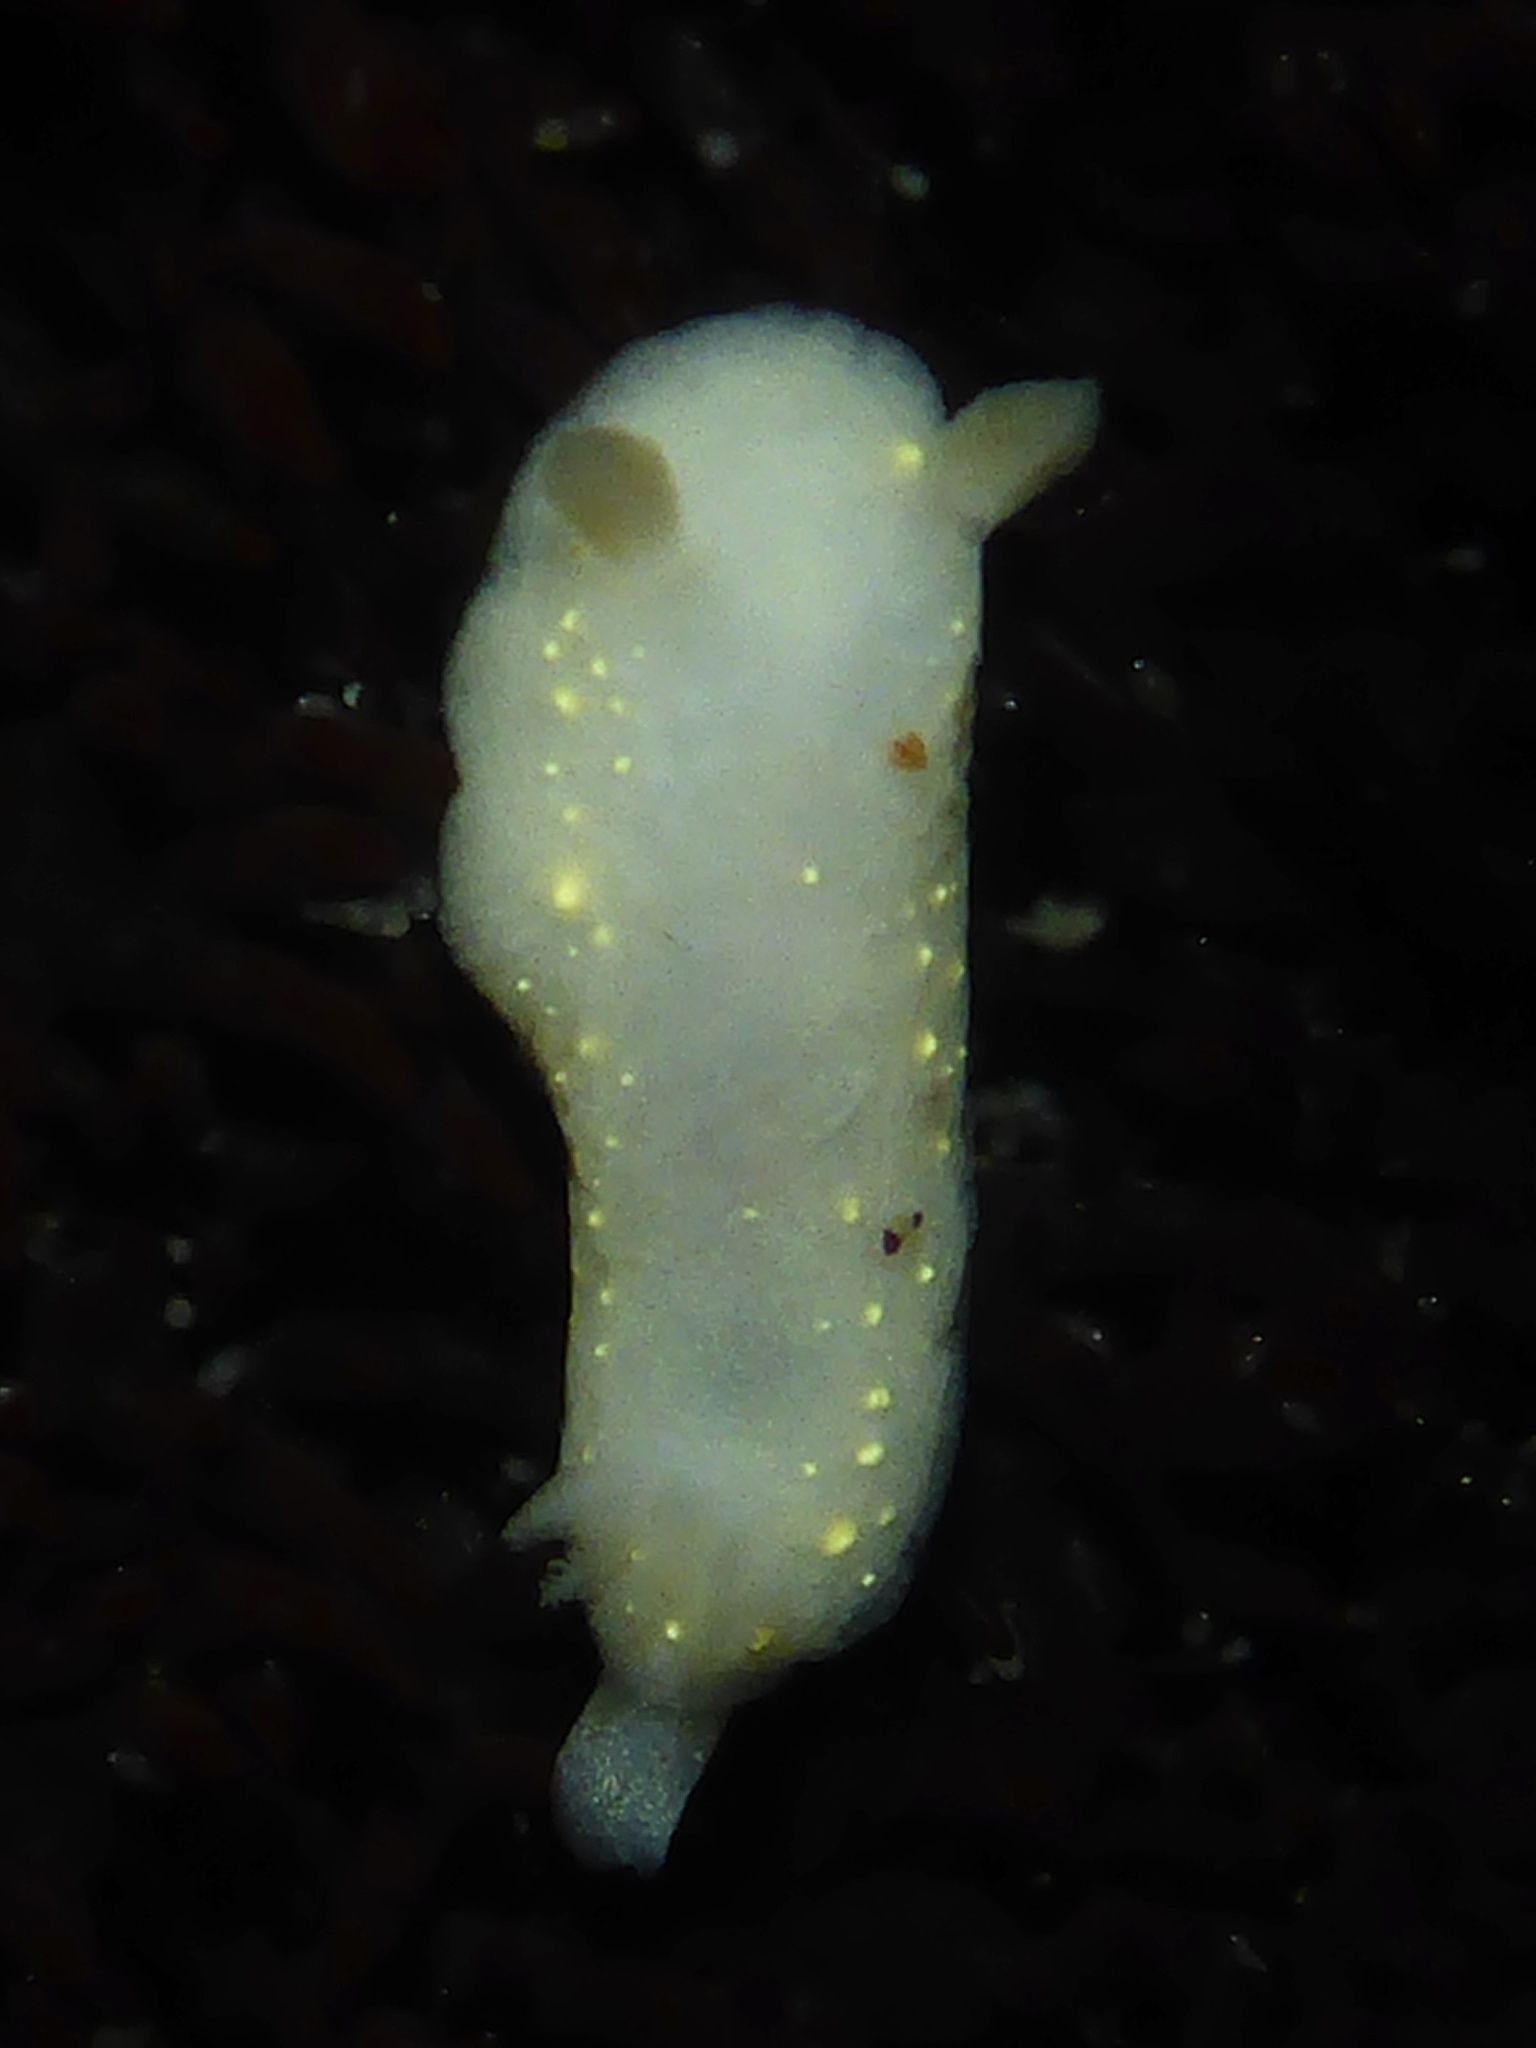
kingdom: Animalia
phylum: Mollusca
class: Gastropoda
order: Nudibranchia
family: Cadlinidae
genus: Cadlina
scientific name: Cadlina modesta
